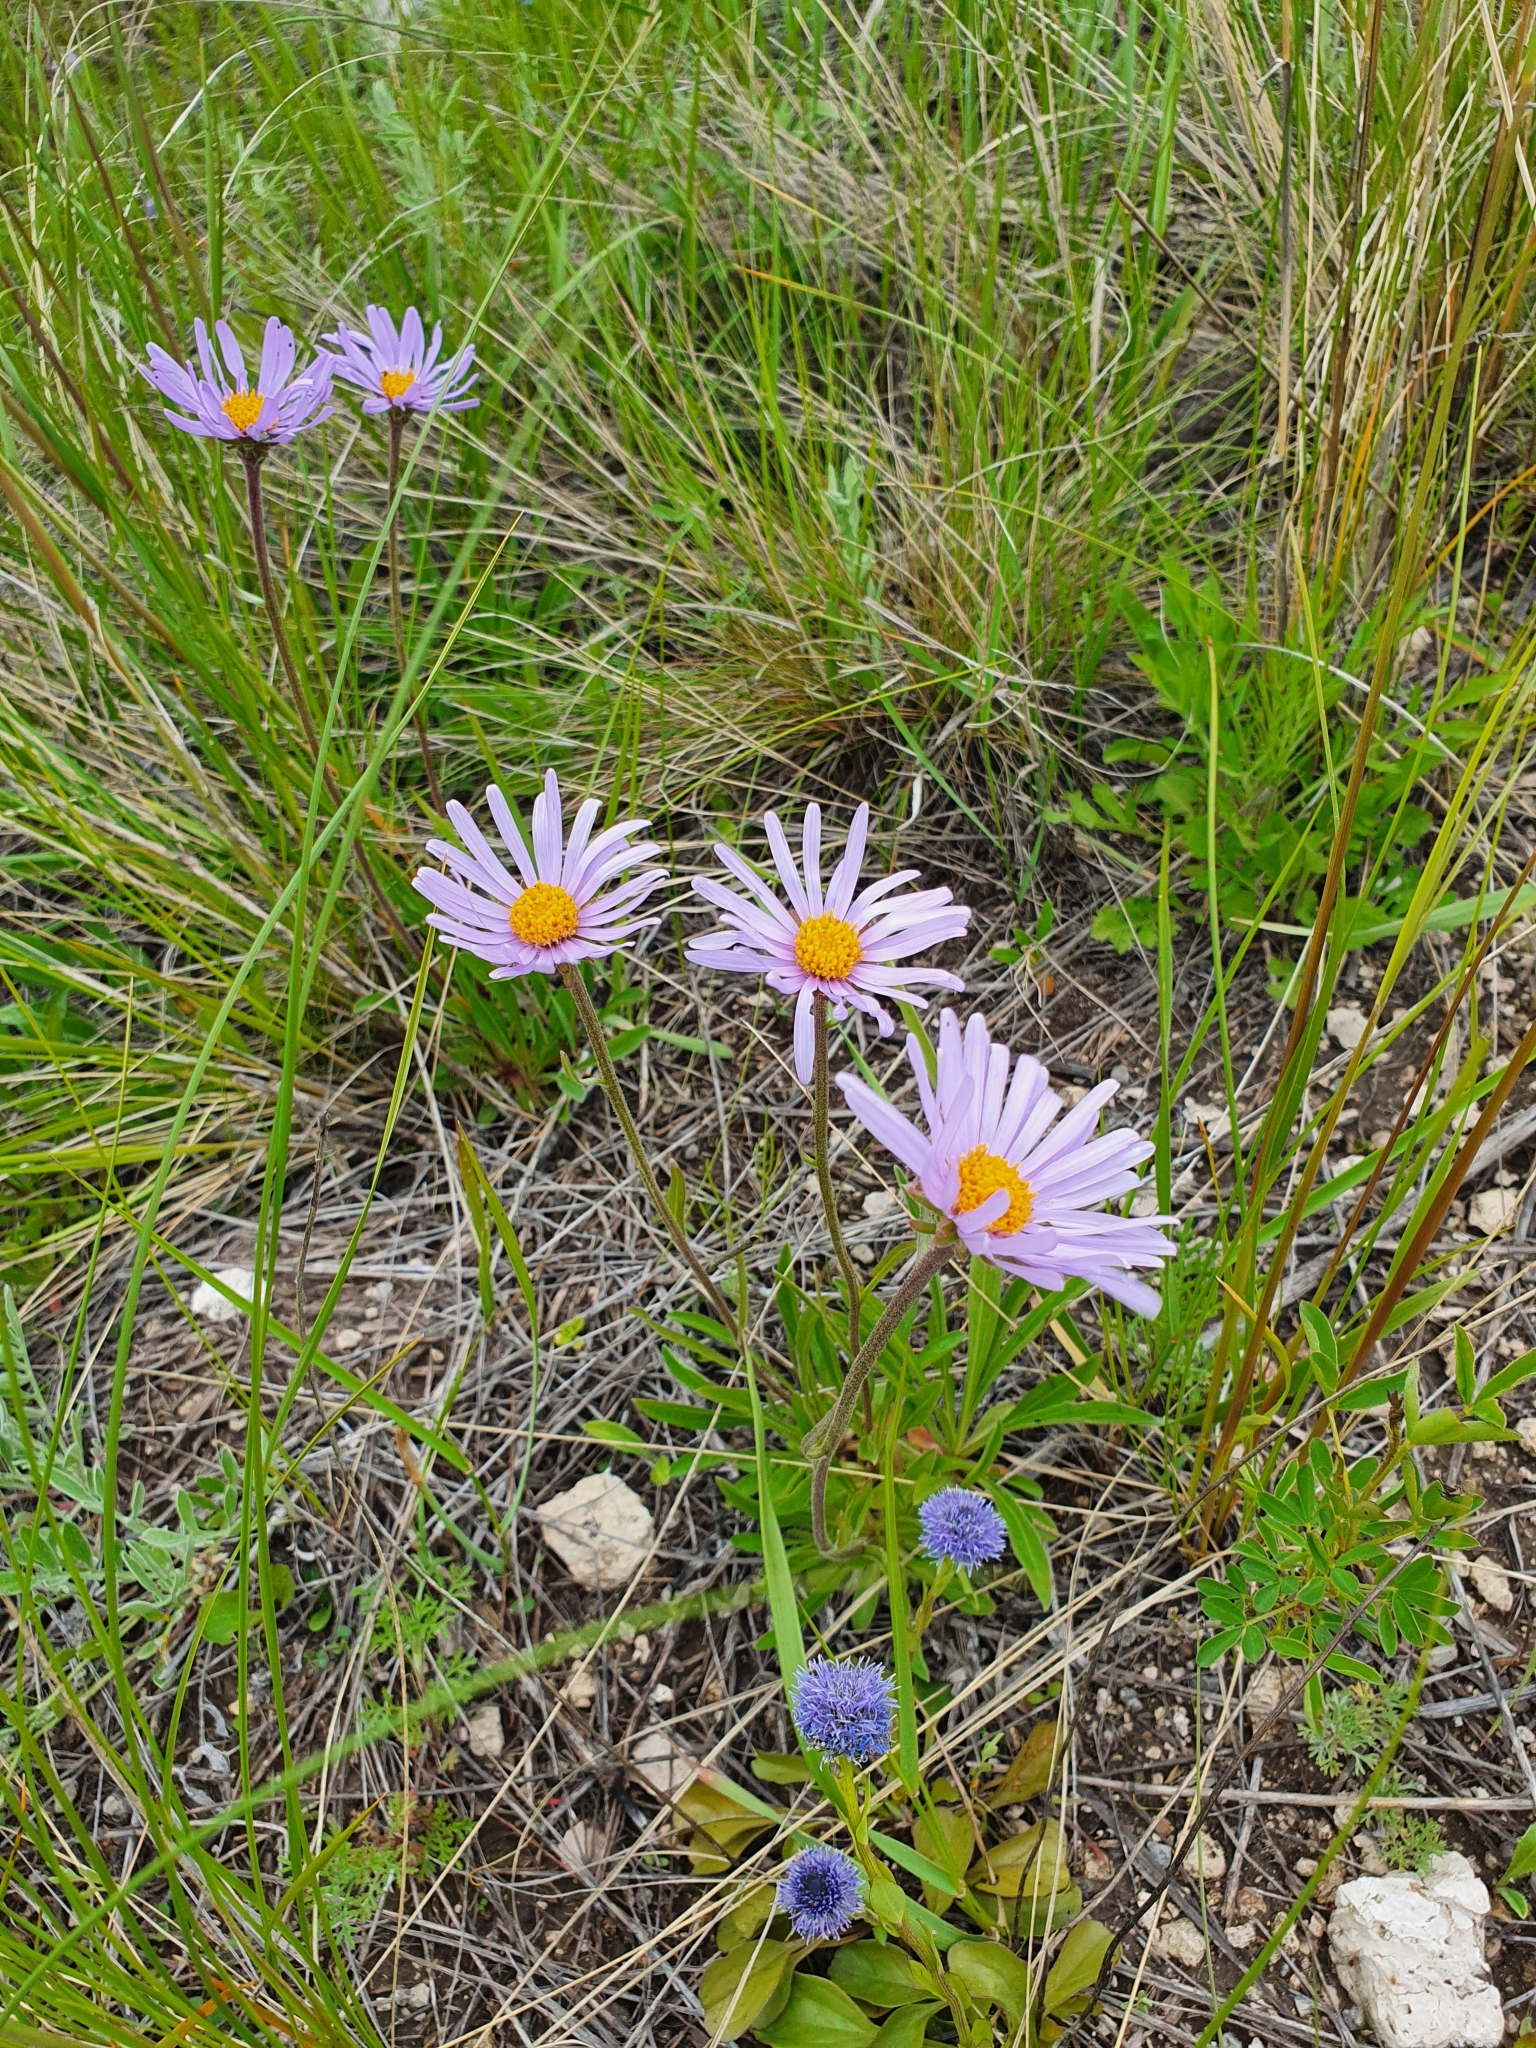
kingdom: Plantae
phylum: Tracheophyta
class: Magnoliopsida
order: Asterales
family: Asteraceae
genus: Aster
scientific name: Aster alpinus
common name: Alpine aster
